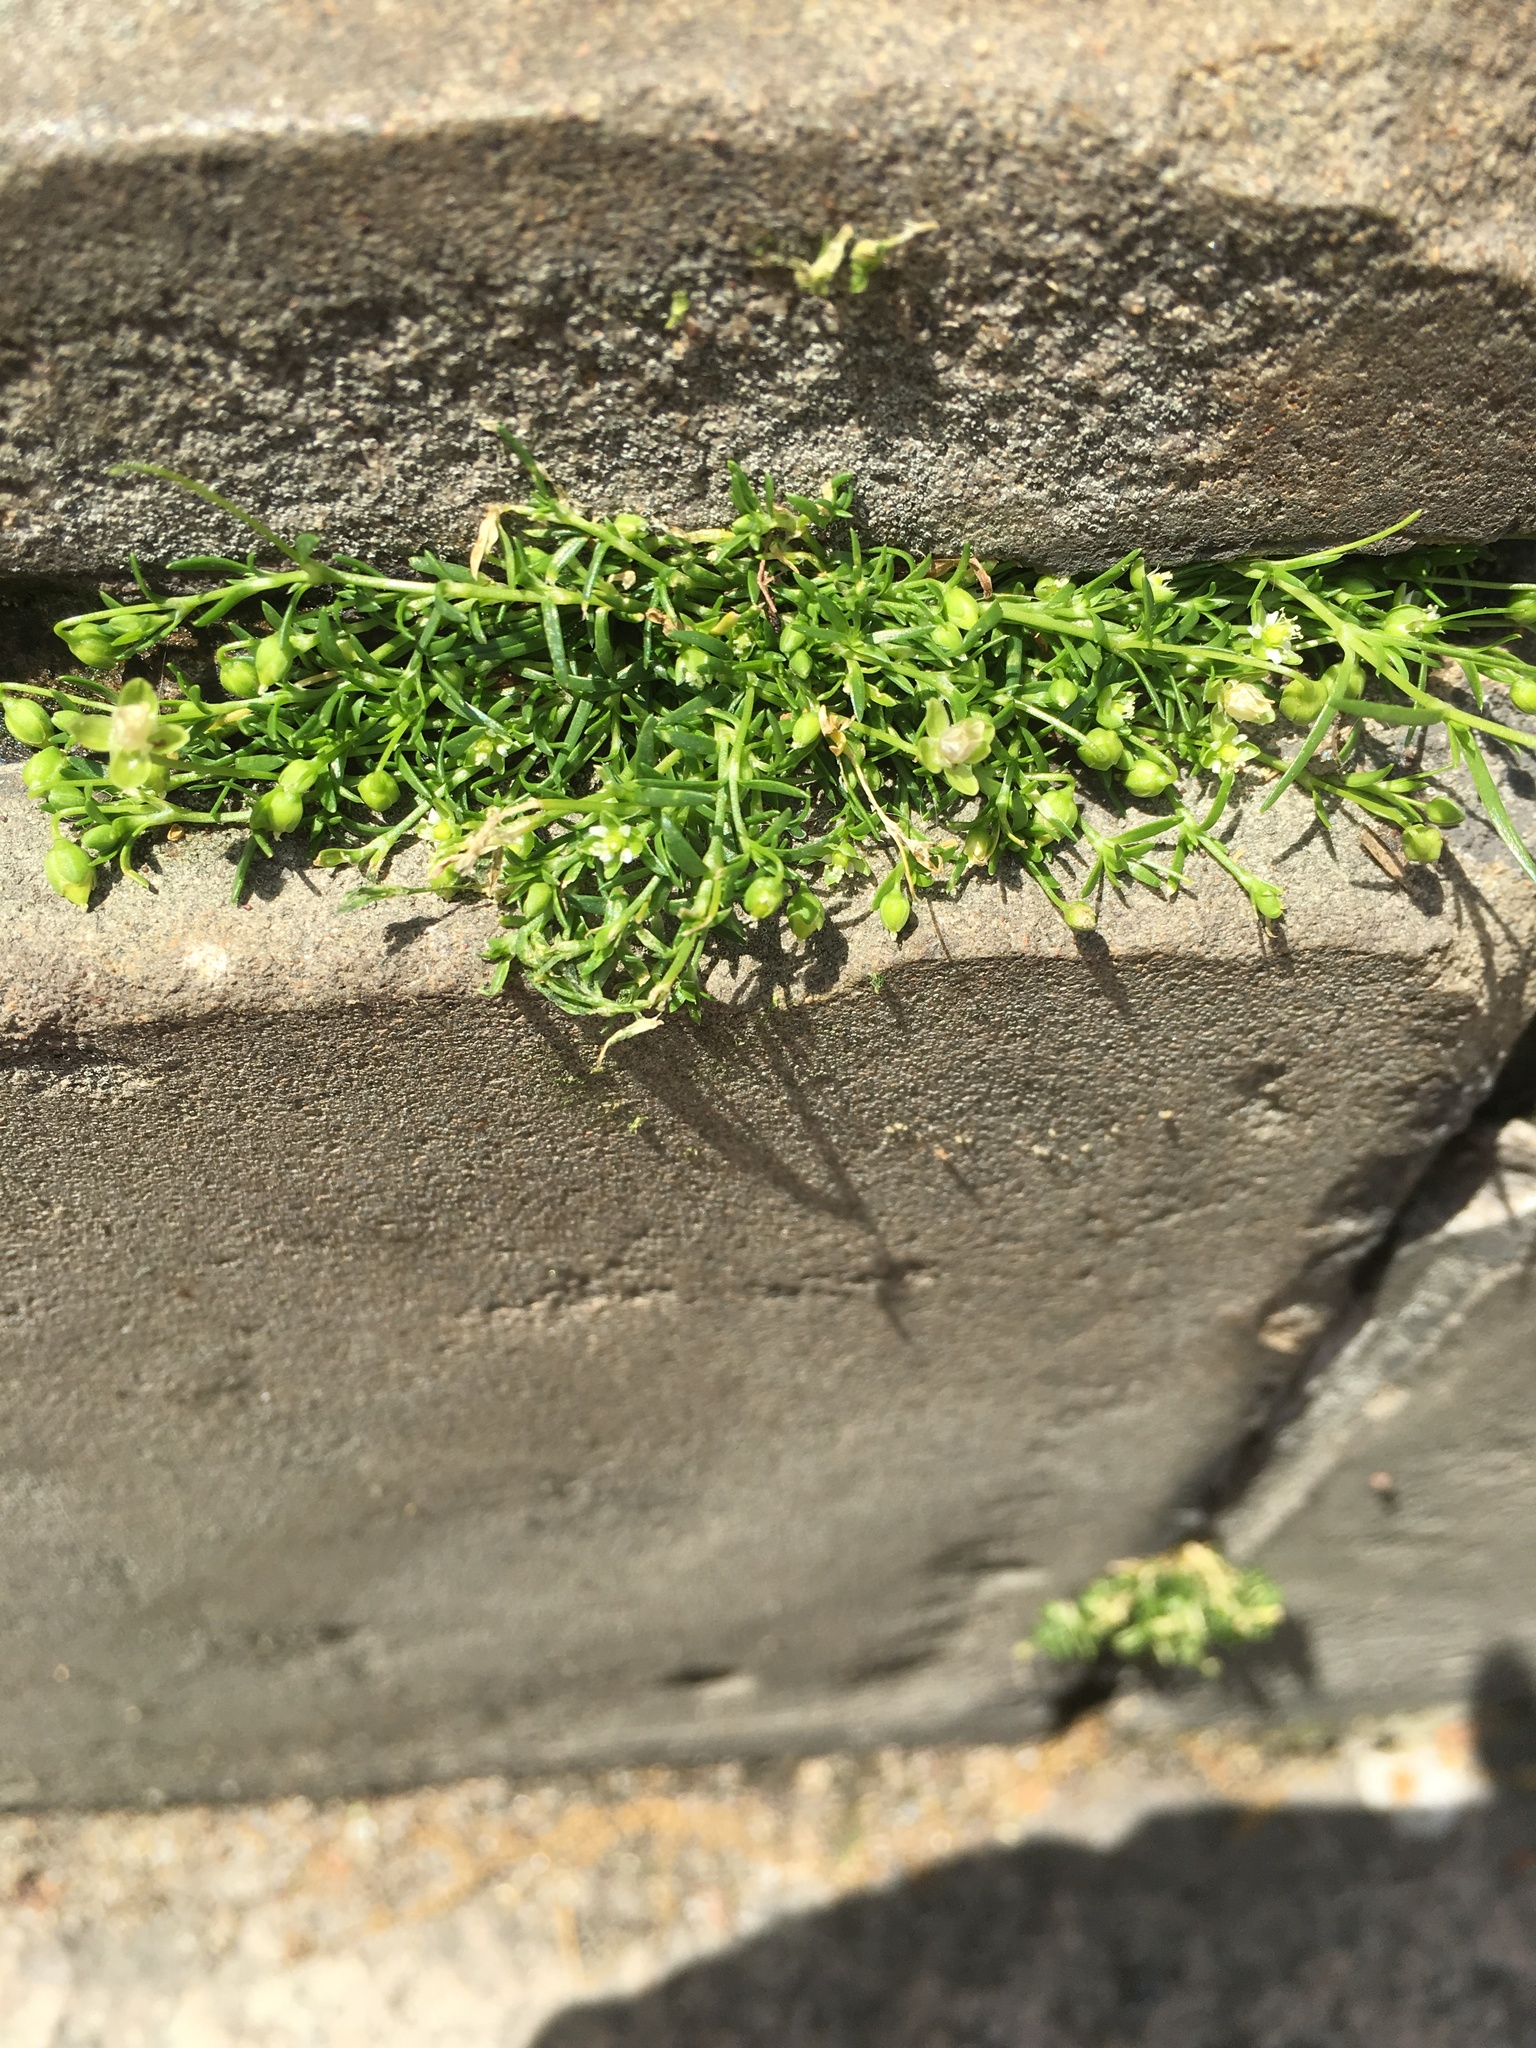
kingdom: Plantae
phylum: Tracheophyta
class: Magnoliopsida
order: Caryophyllales
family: Caryophyllaceae
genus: Sagina
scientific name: Sagina procumbens
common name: Procumbent pearlwort
